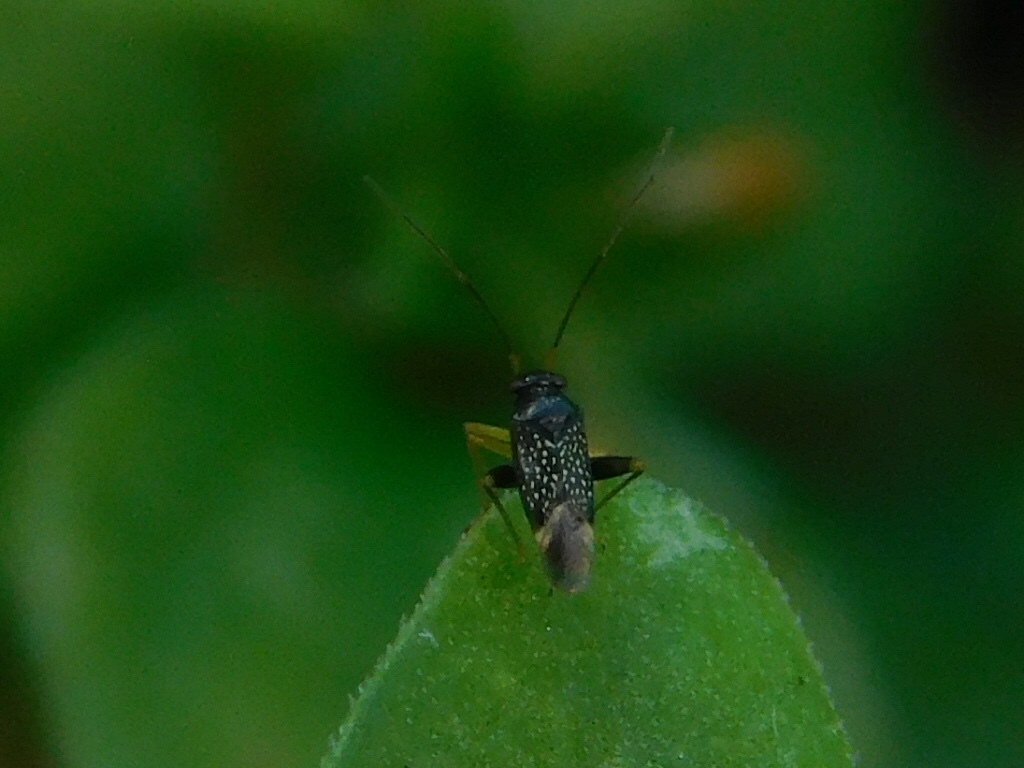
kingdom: Animalia
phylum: Arthropoda
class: Insecta
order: Hemiptera
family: Miridae
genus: Microtechnites
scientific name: Microtechnites bractatus
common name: Garden fleahopper
